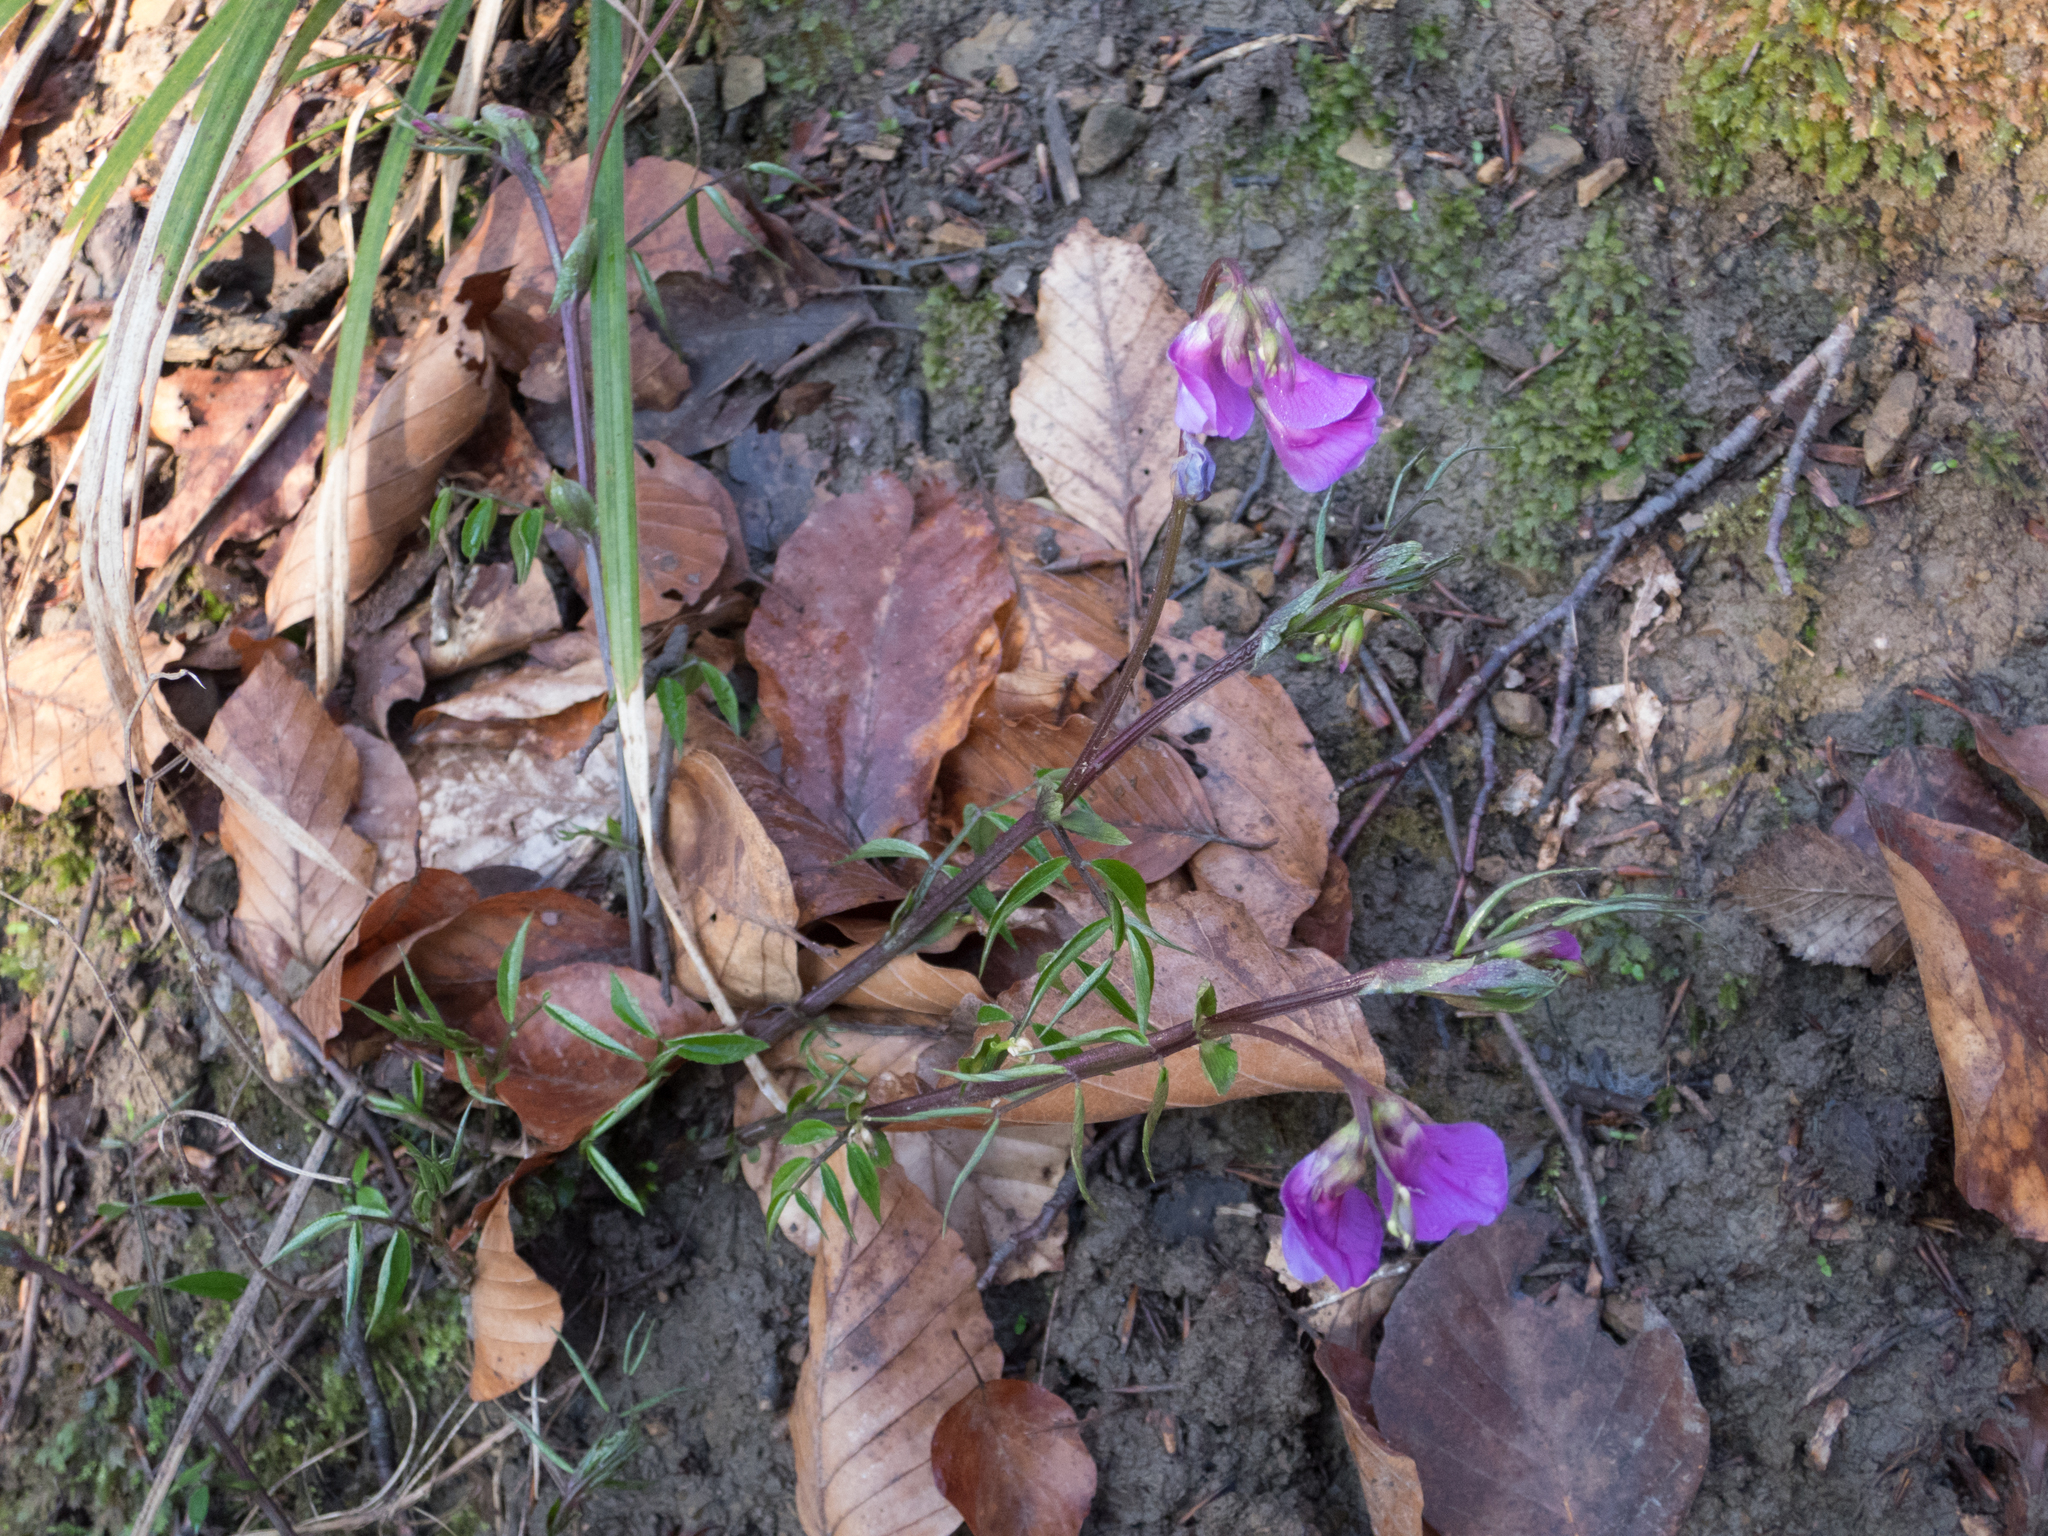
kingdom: Plantae
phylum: Tracheophyta
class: Magnoliopsida
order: Fabales
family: Fabaceae
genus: Lathyrus
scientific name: Lathyrus vernus
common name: Spring pea
